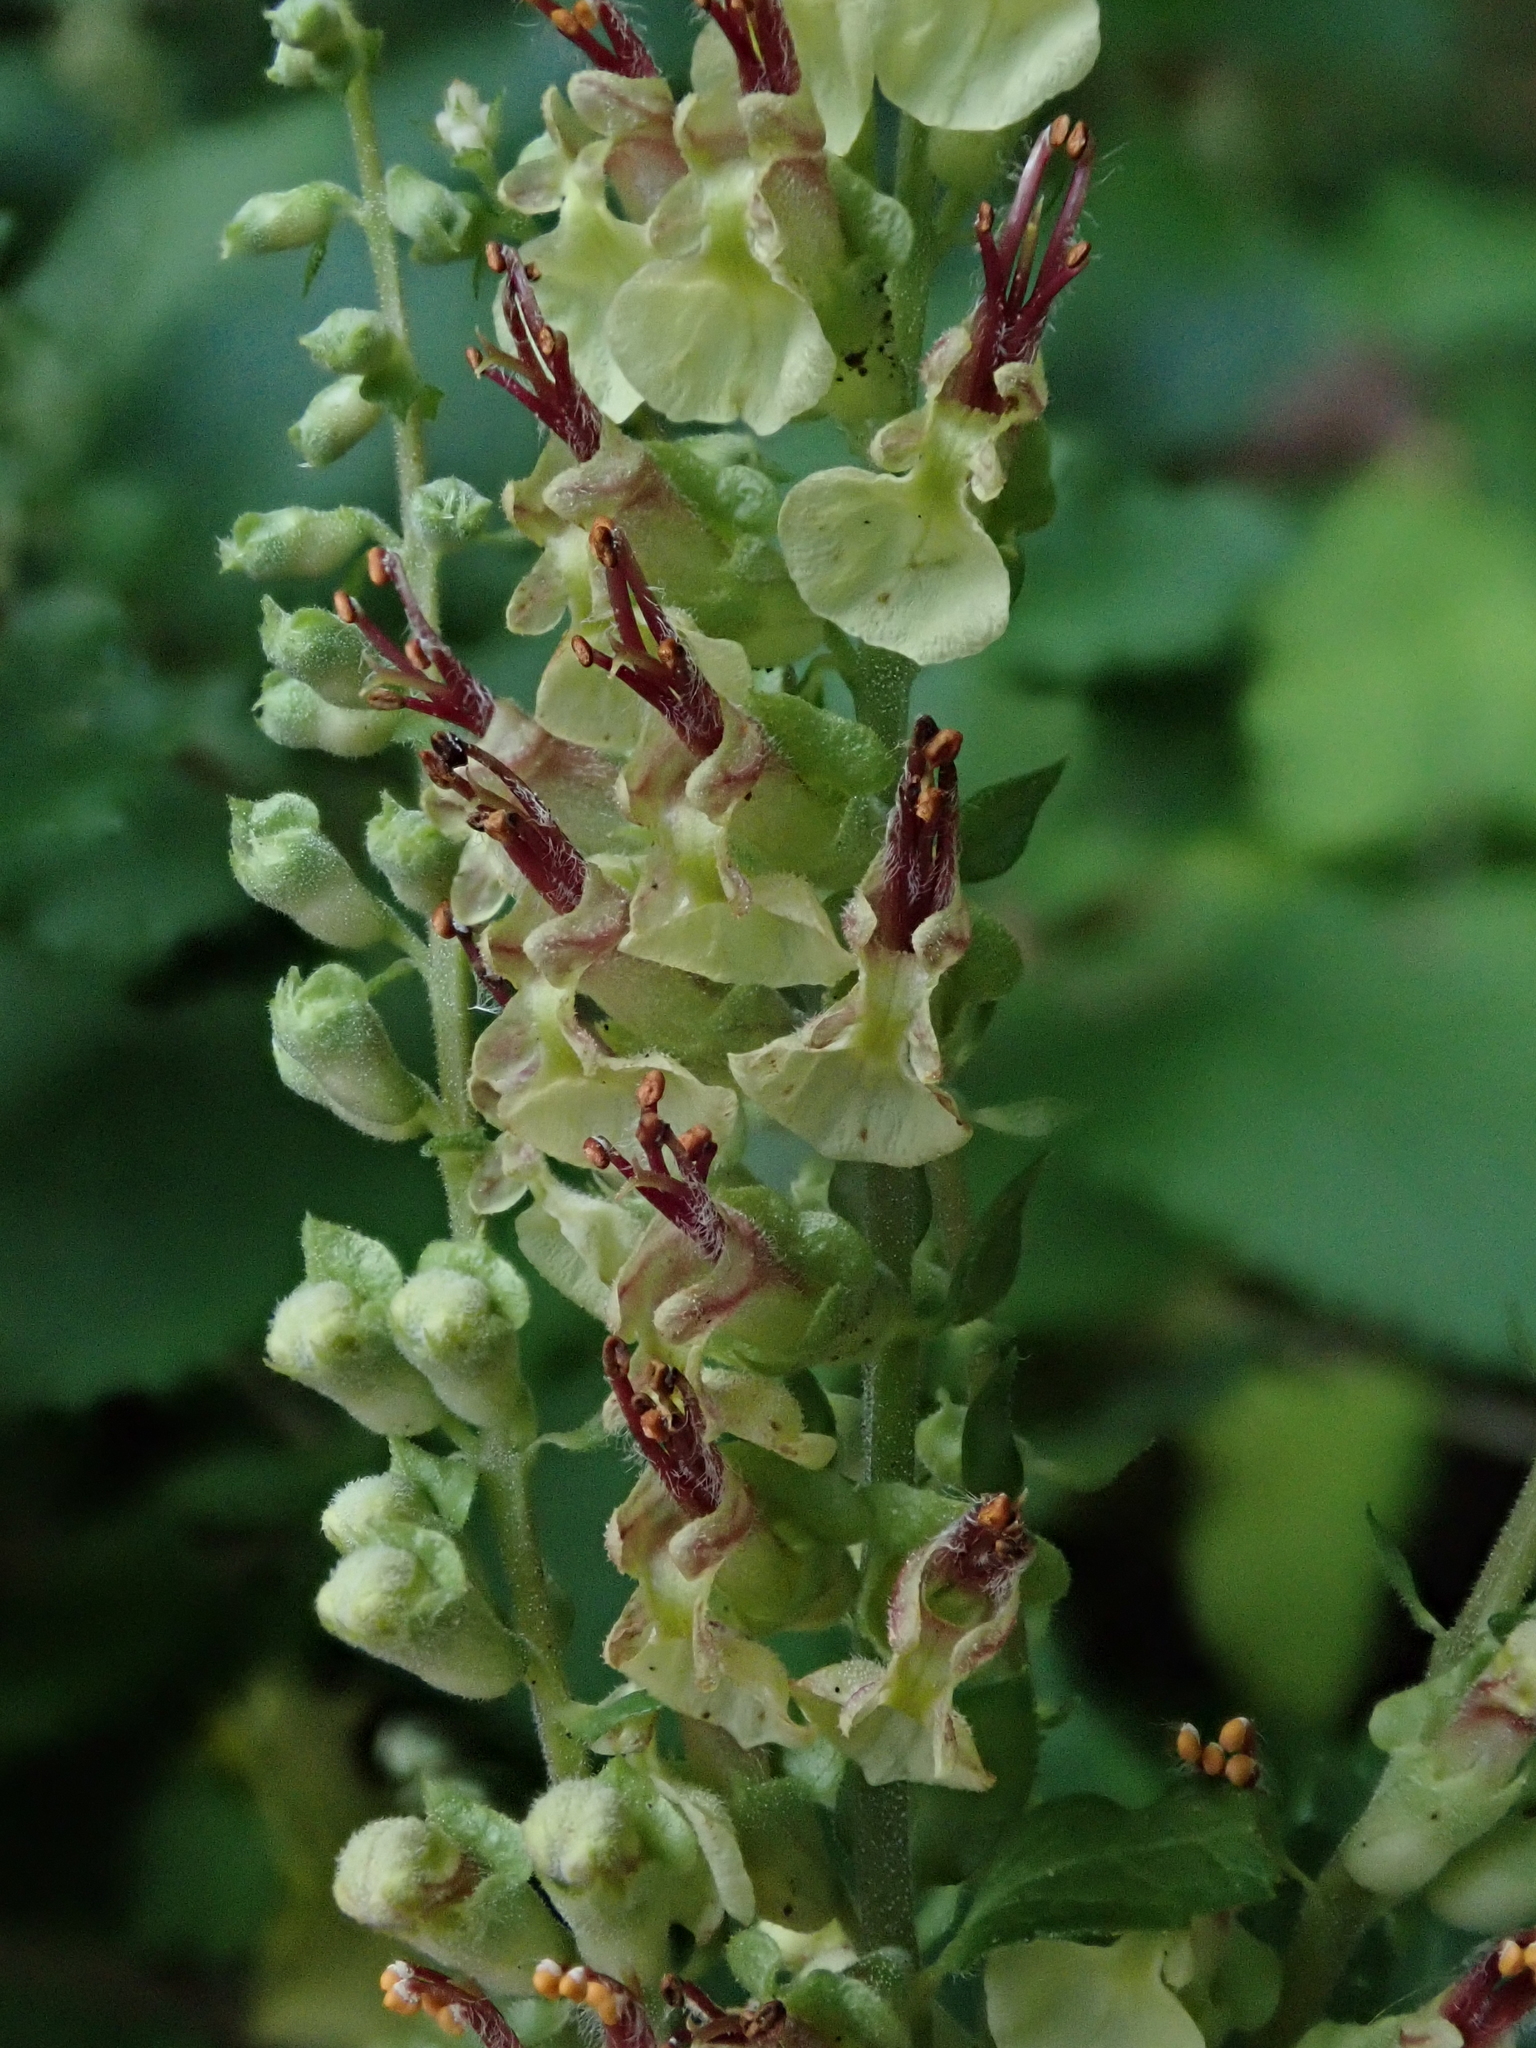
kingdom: Plantae
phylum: Tracheophyta
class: Magnoliopsida
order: Lamiales
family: Lamiaceae
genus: Teucrium
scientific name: Teucrium scorodonia
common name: Woodland germander
